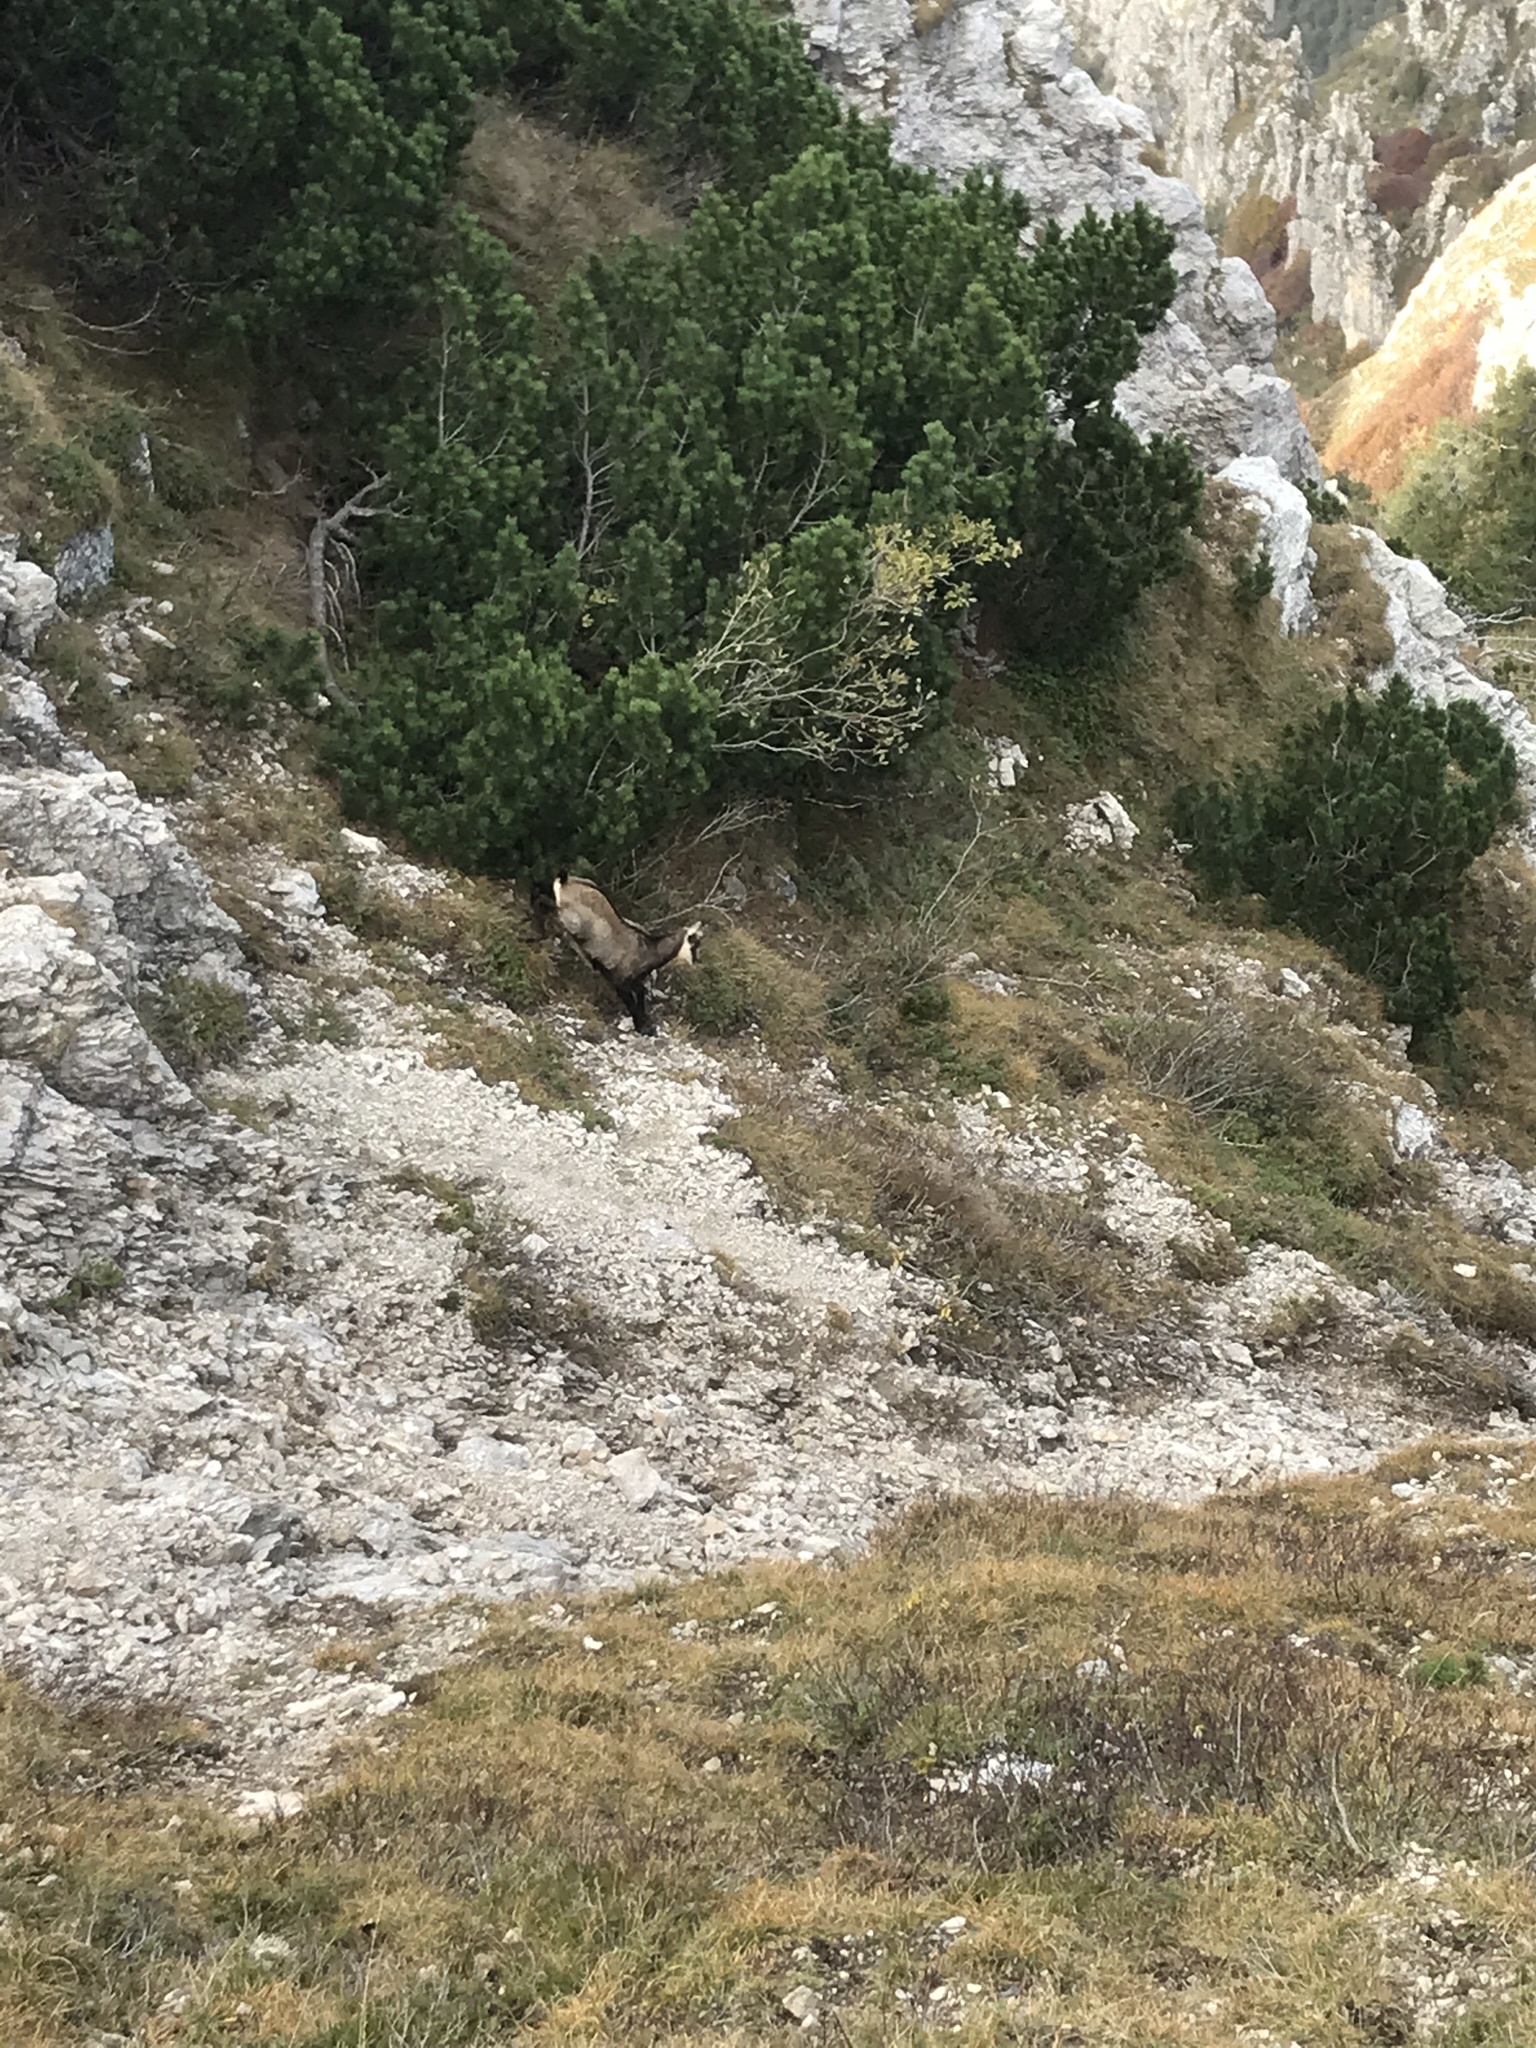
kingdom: Animalia
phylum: Chordata
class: Mammalia
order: Artiodactyla
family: Bovidae
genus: Rupicapra
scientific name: Rupicapra rupicapra
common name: Chamois
